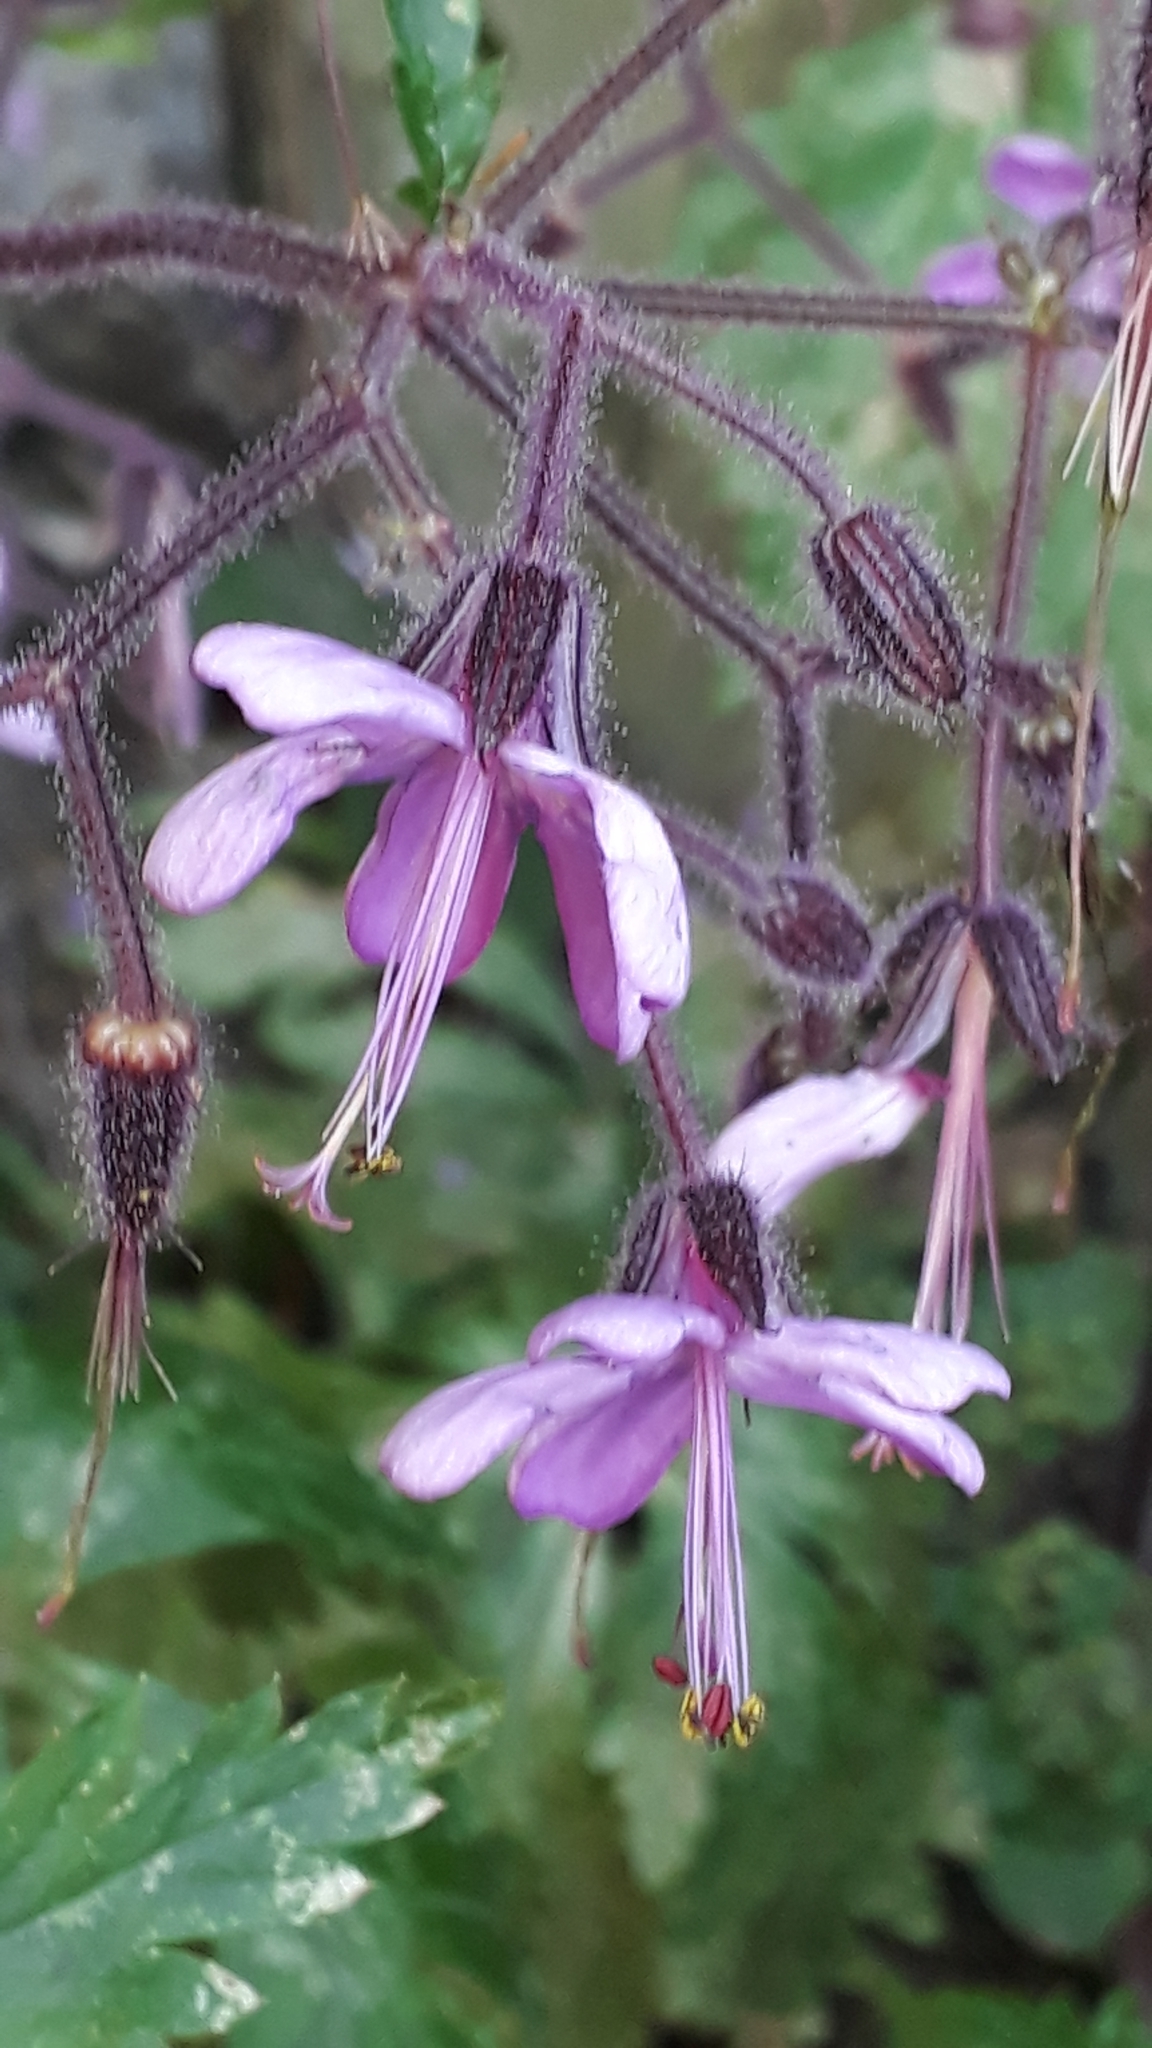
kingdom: Plantae
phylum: Tracheophyta
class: Magnoliopsida
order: Geraniales
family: Geraniaceae
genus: Geranium
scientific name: Geranium reuteri
